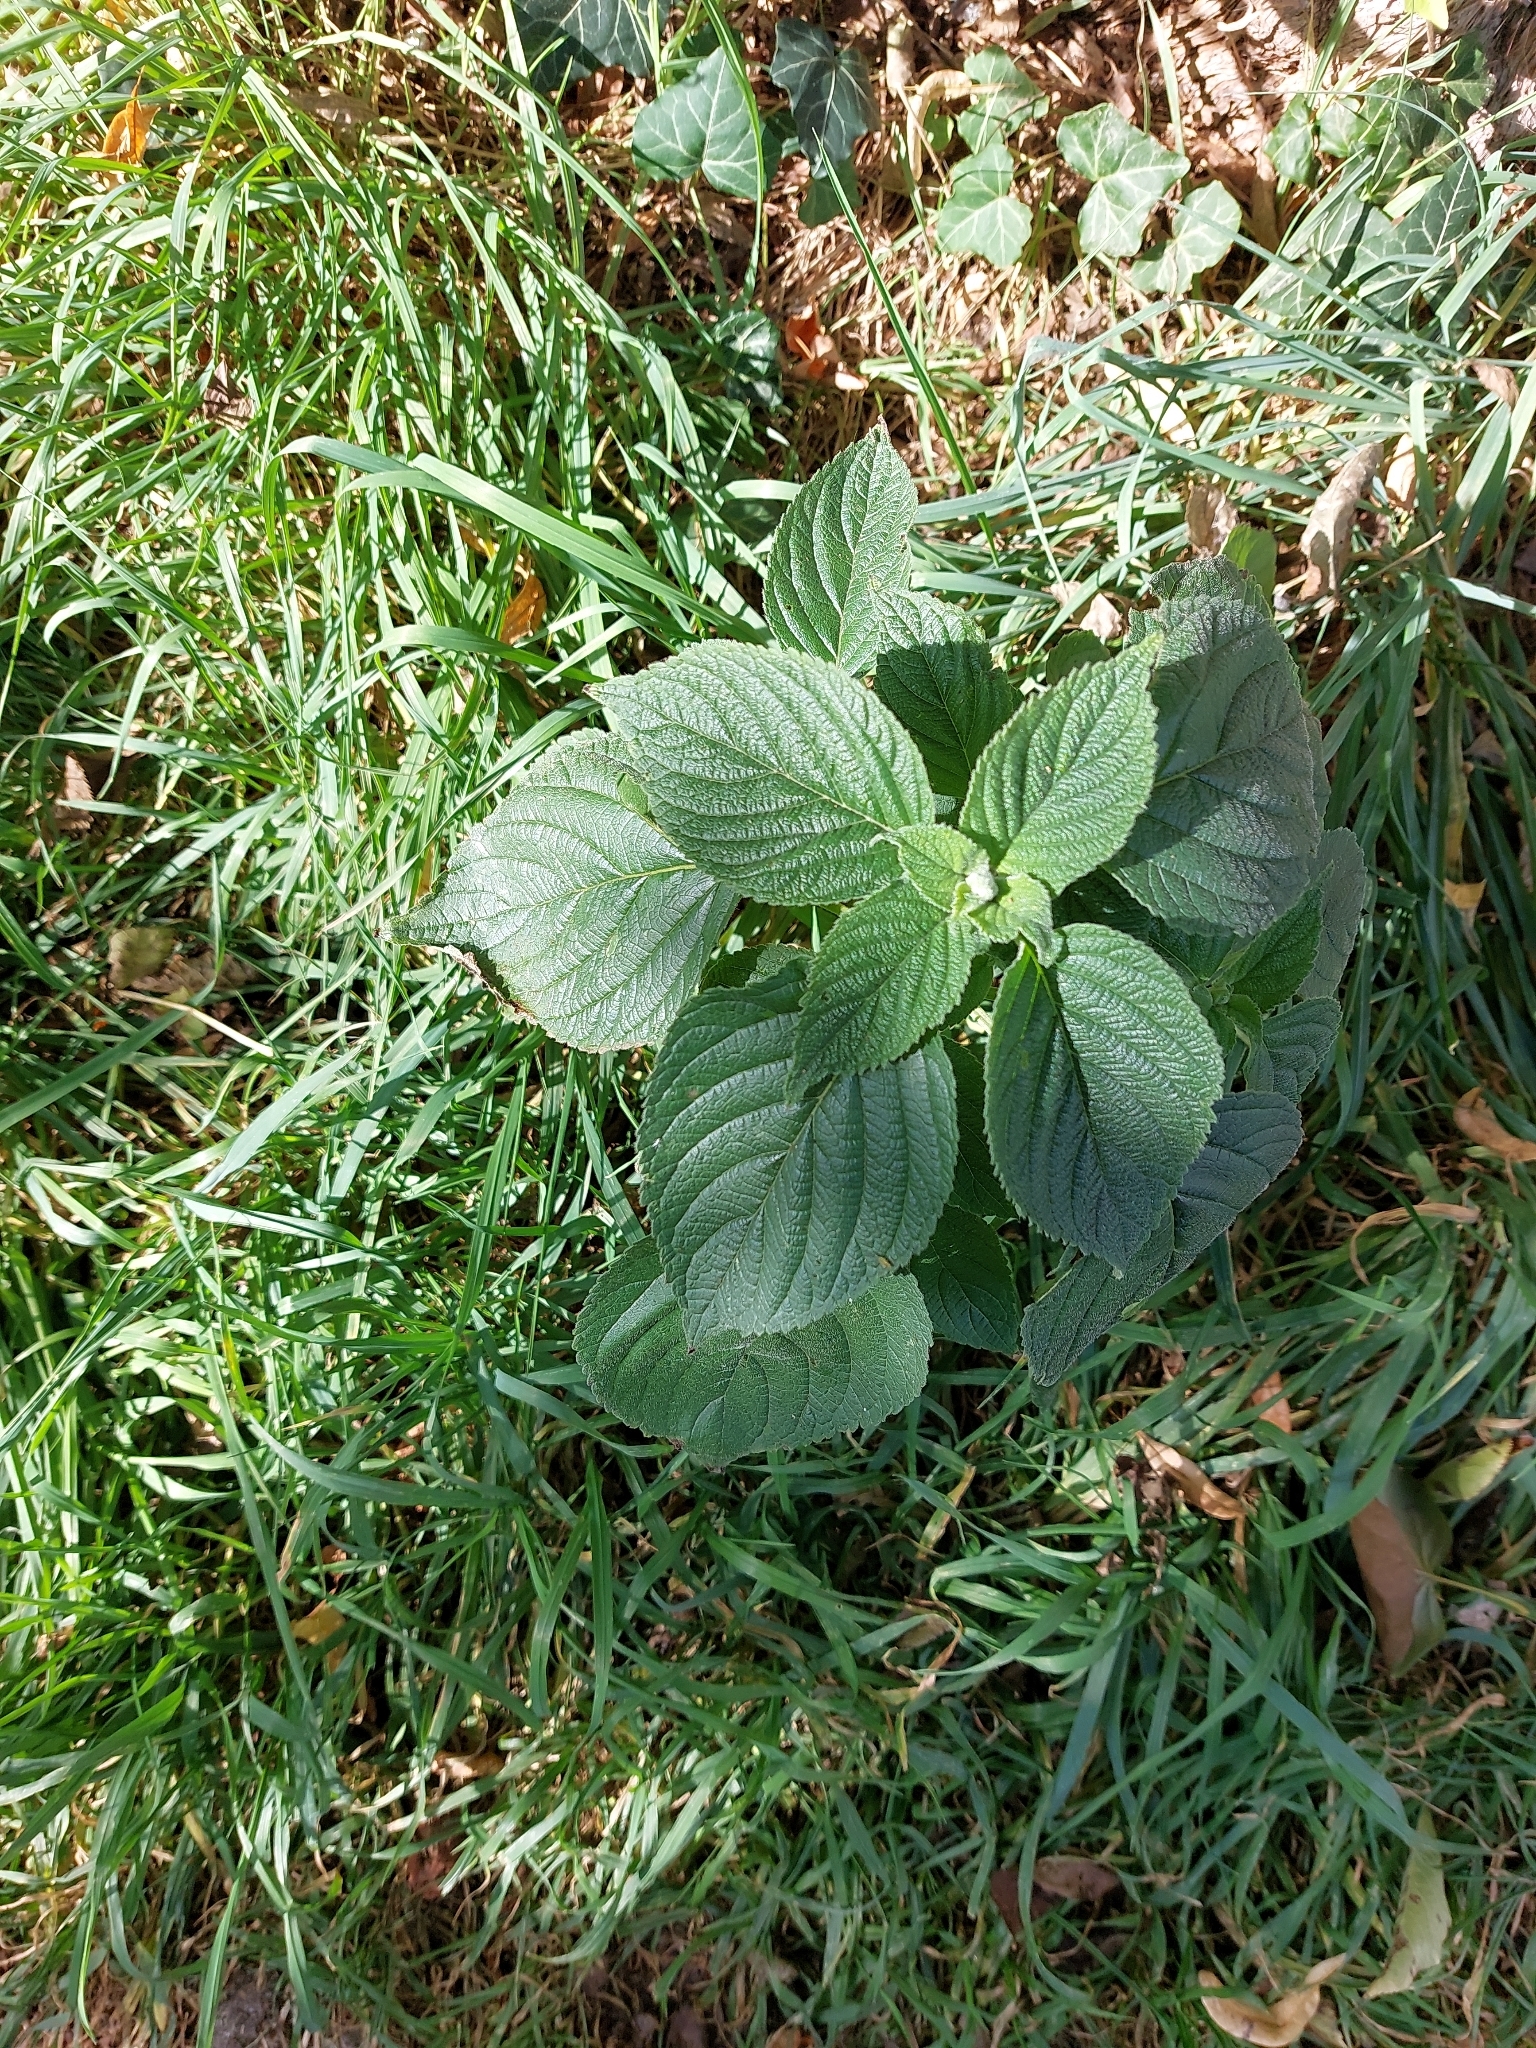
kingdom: Plantae
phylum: Tracheophyta
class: Magnoliopsida
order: Dipsacales
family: Viburnaceae
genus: Viburnum
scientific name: Viburnum lantana
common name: Wayfaring tree
